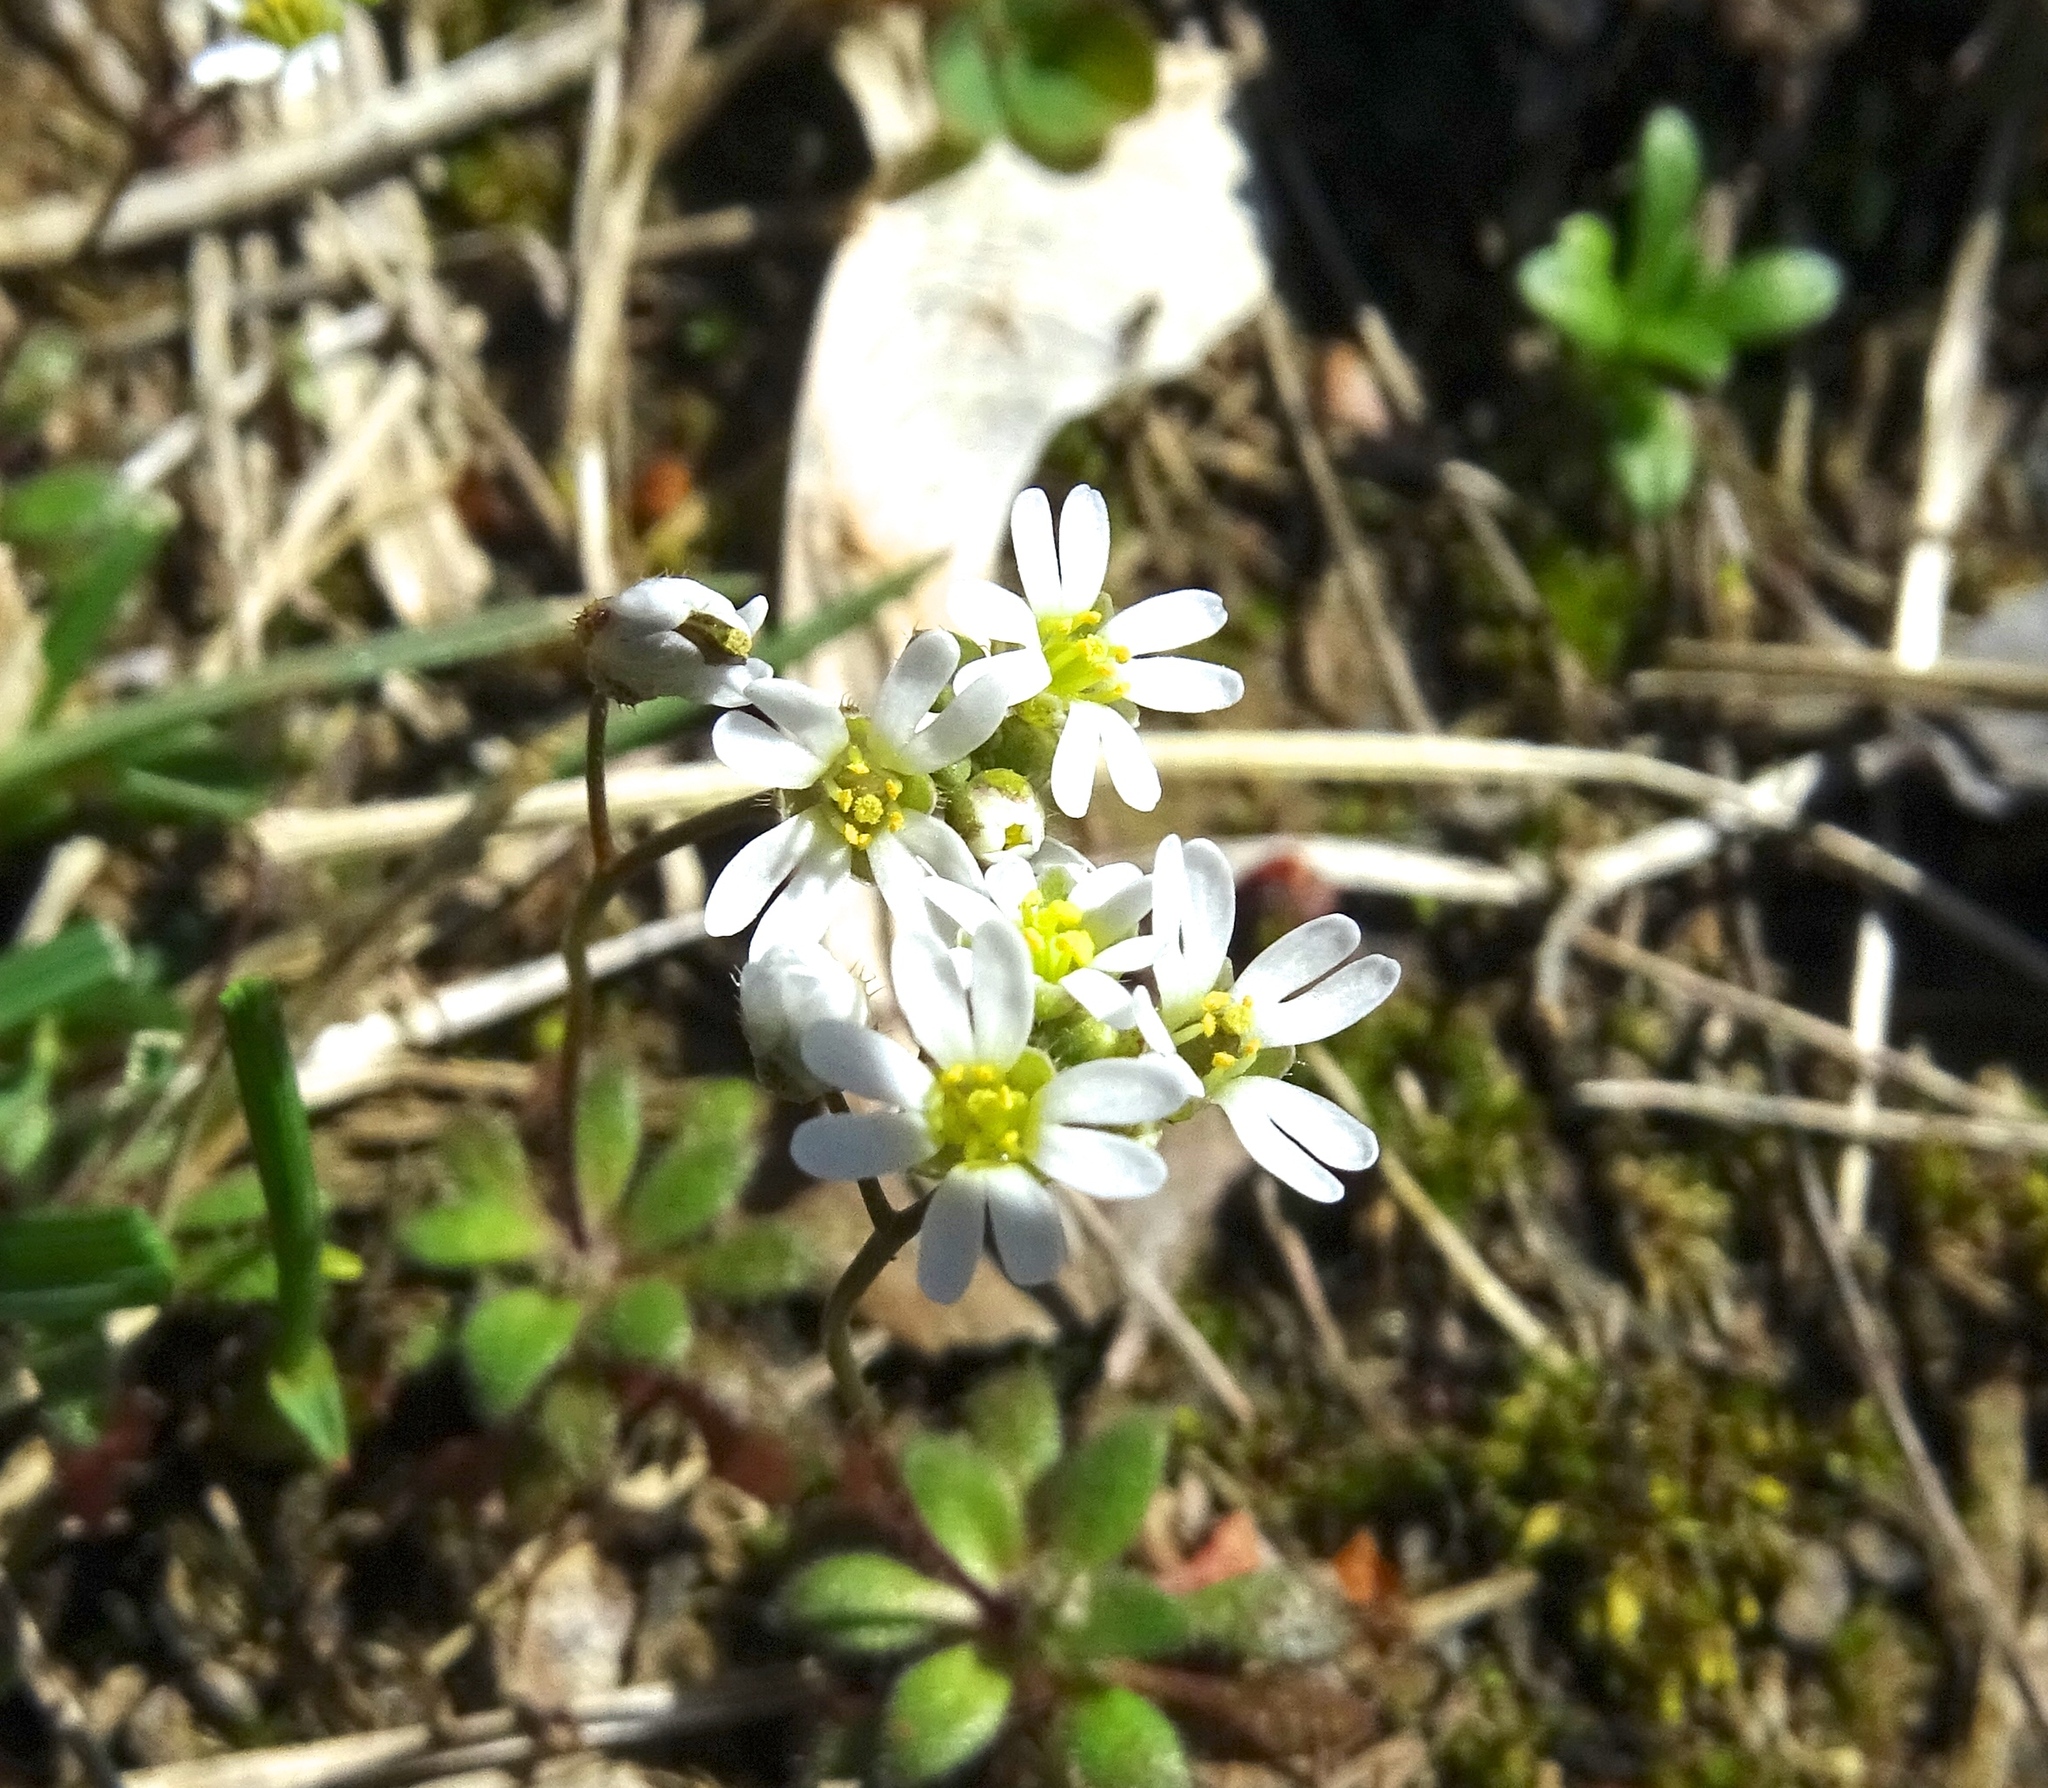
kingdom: Plantae
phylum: Tracheophyta
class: Magnoliopsida
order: Brassicales
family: Brassicaceae
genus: Draba
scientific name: Draba verna
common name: Spring draba
